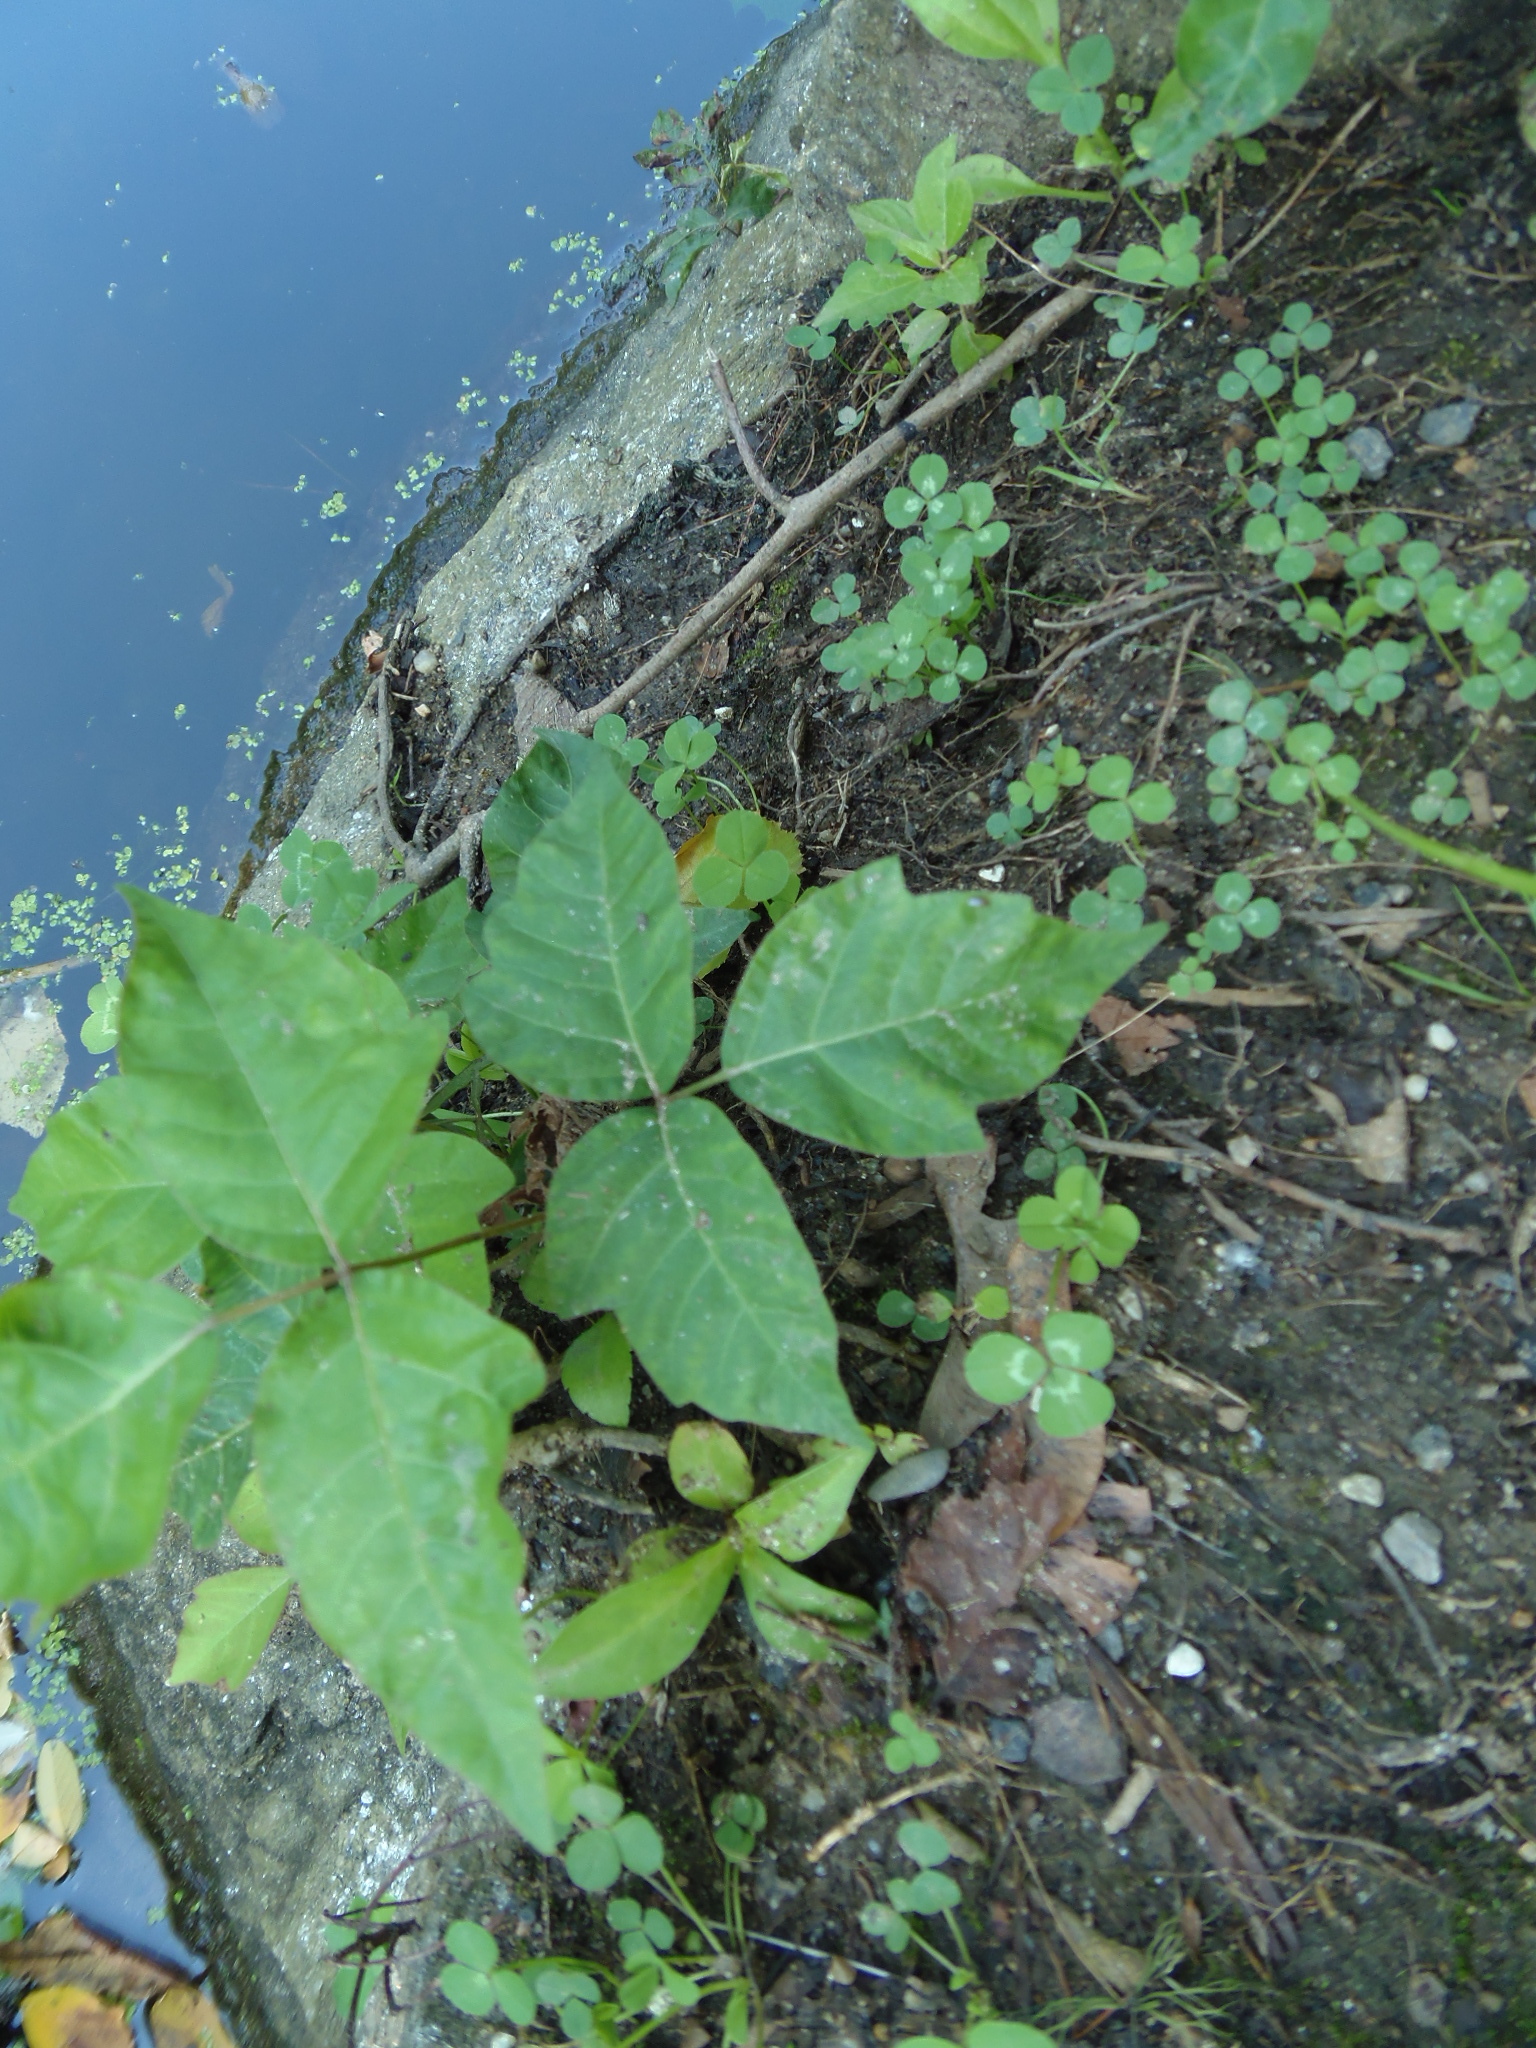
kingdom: Plantae
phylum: Tracheophyta
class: Magnoliopsida
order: Sapindales
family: Anacardiaceae
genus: Toxicodendron
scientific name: Toxicodendron radicans
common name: Poison ivy
